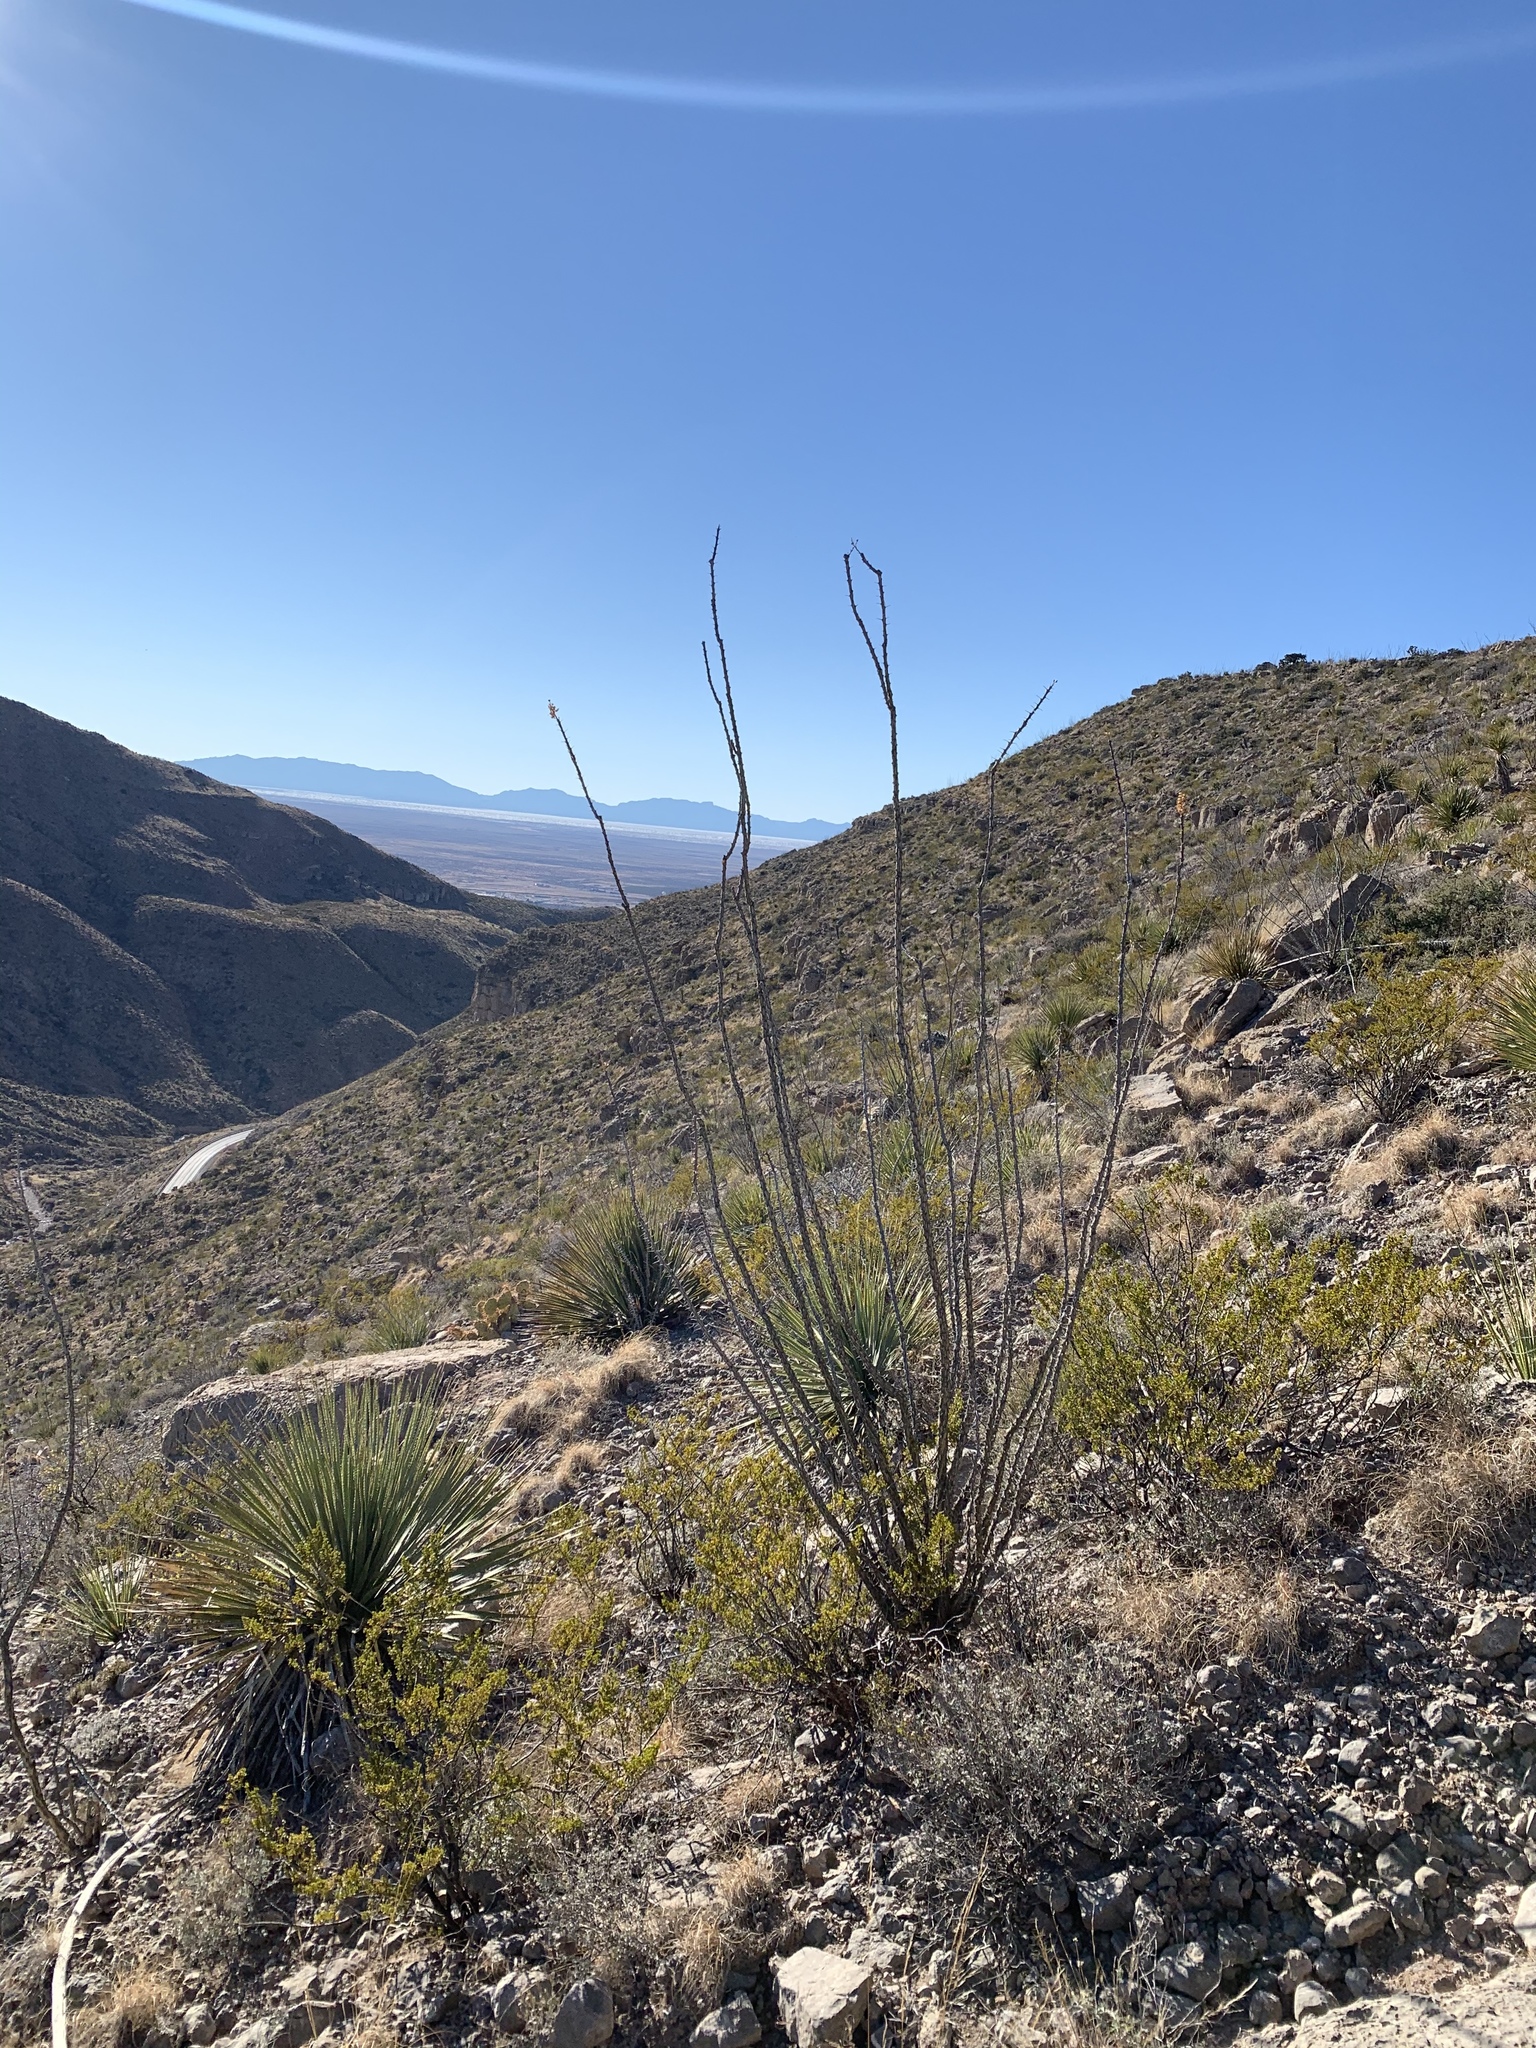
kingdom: Plantae
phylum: Tracheophyta
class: Magnoliopsida
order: Ericales
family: Fouquieriaceae
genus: Fouquieria
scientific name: Fouquieria splendens
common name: Vine-cactus
